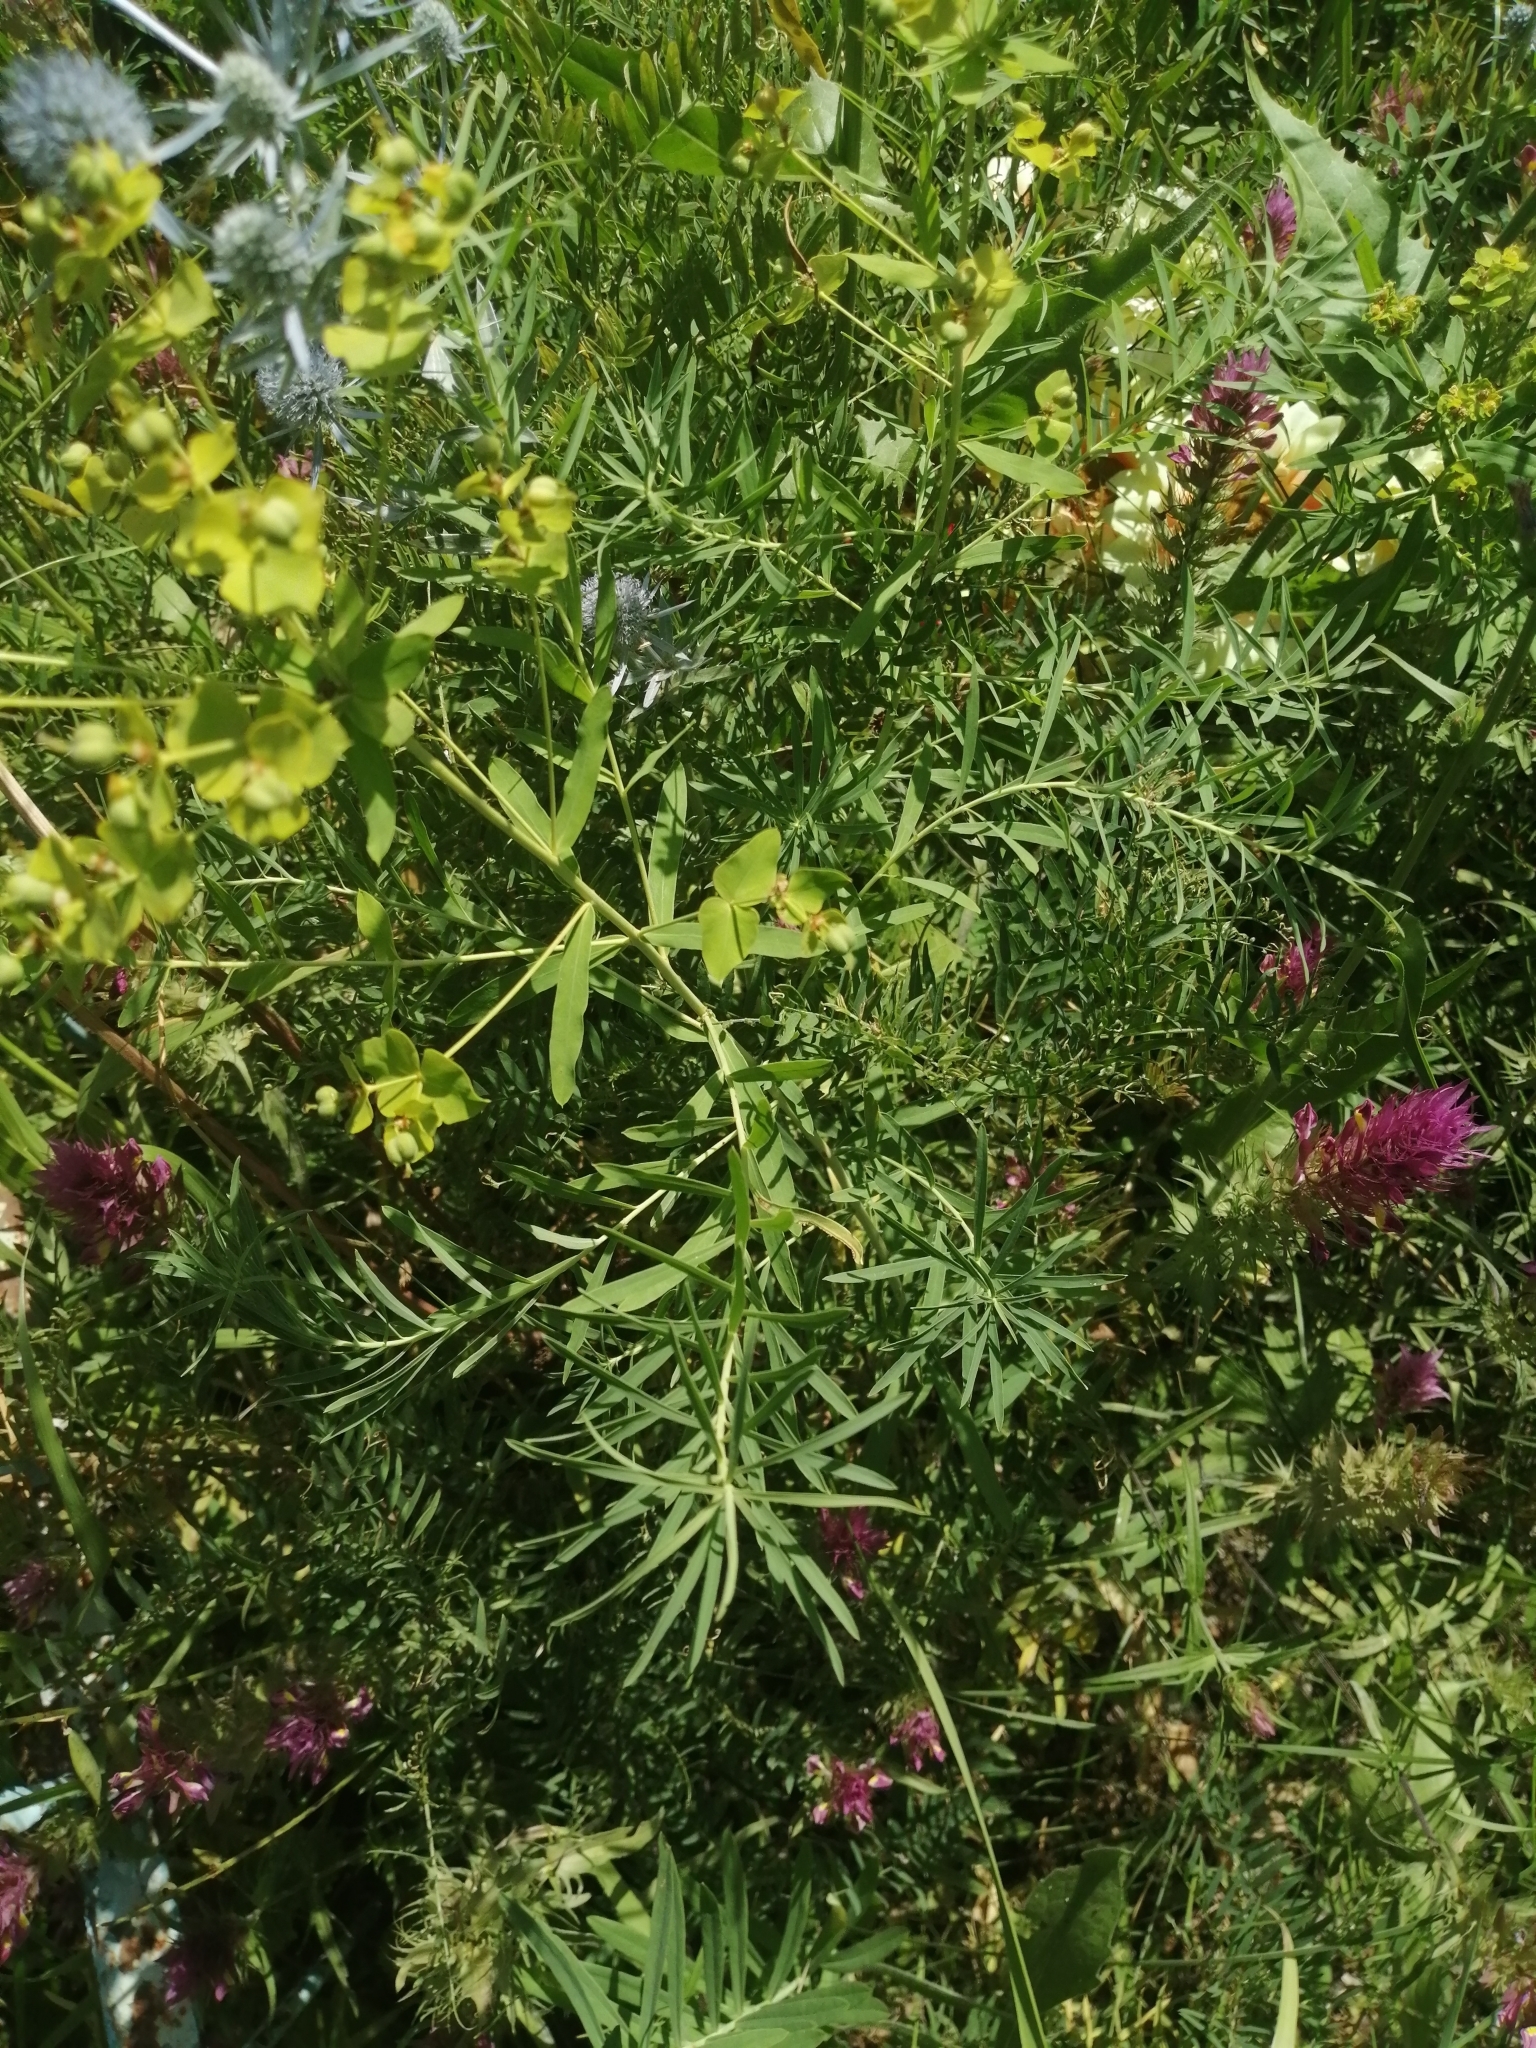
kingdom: Plantae
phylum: Tracheophyta
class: Magnoliopsida
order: Malpighiales
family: Euphorbiaceae
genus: Euphorbia
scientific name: Euphorbia virgata
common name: Leafy spurge
